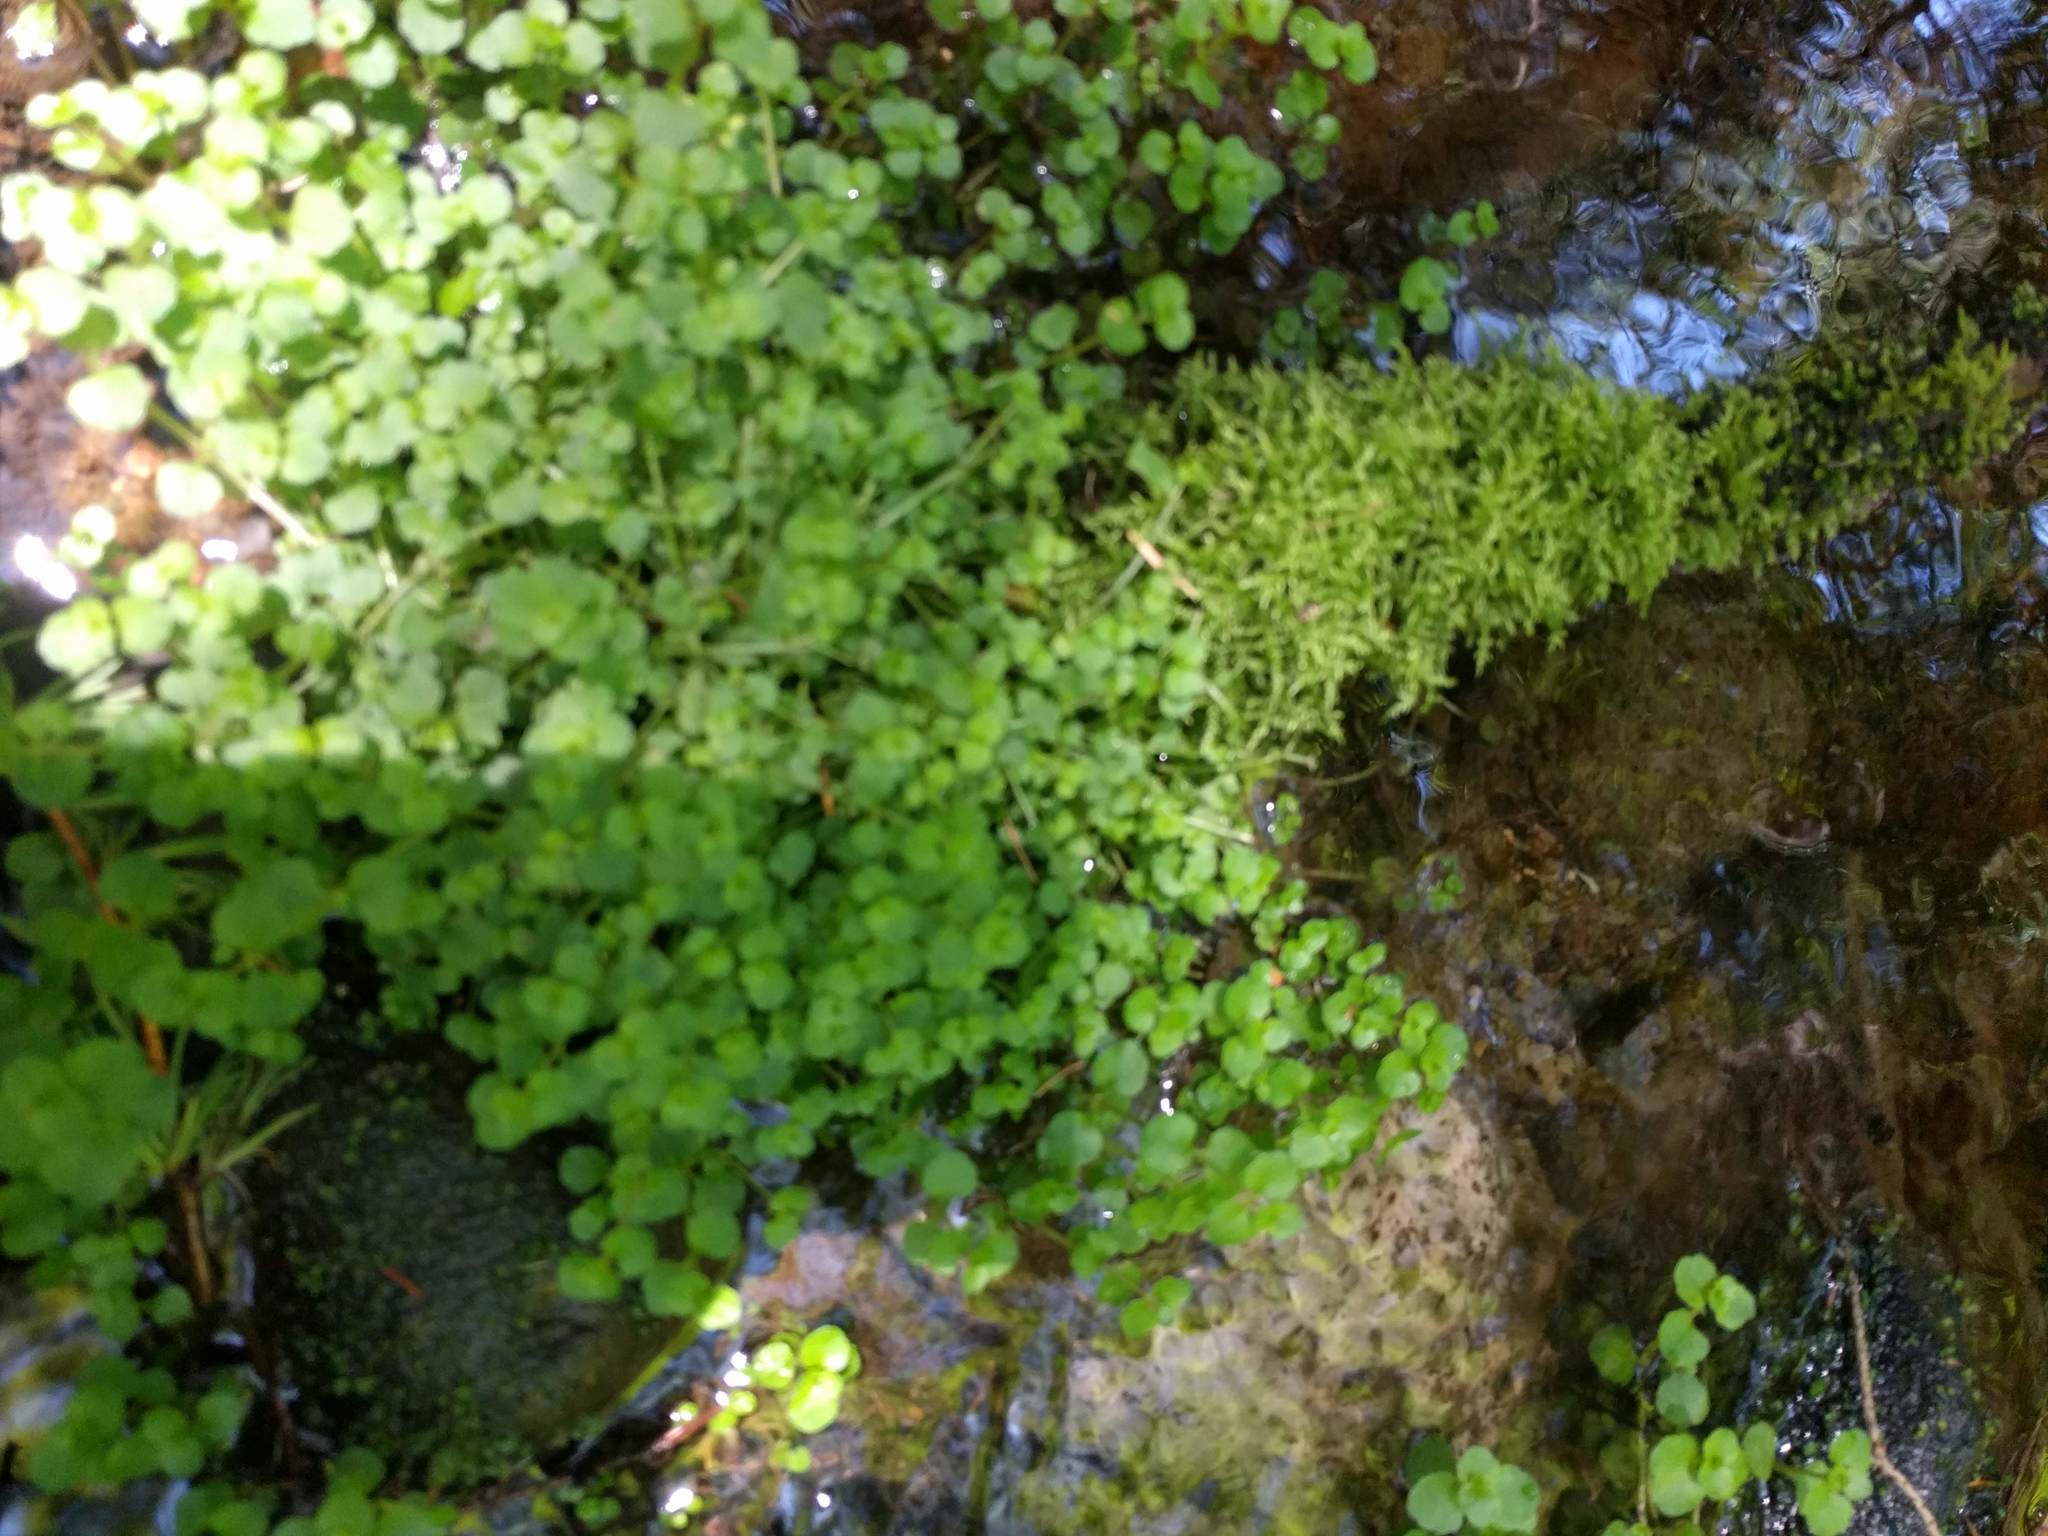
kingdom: Plantae
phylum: Tracheophyta
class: Magnoliopsida
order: Saxifragales
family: Saxifragaceae
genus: Chrysosplenium
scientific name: Chrysosplenium americanum
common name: American golden-saxifrage
